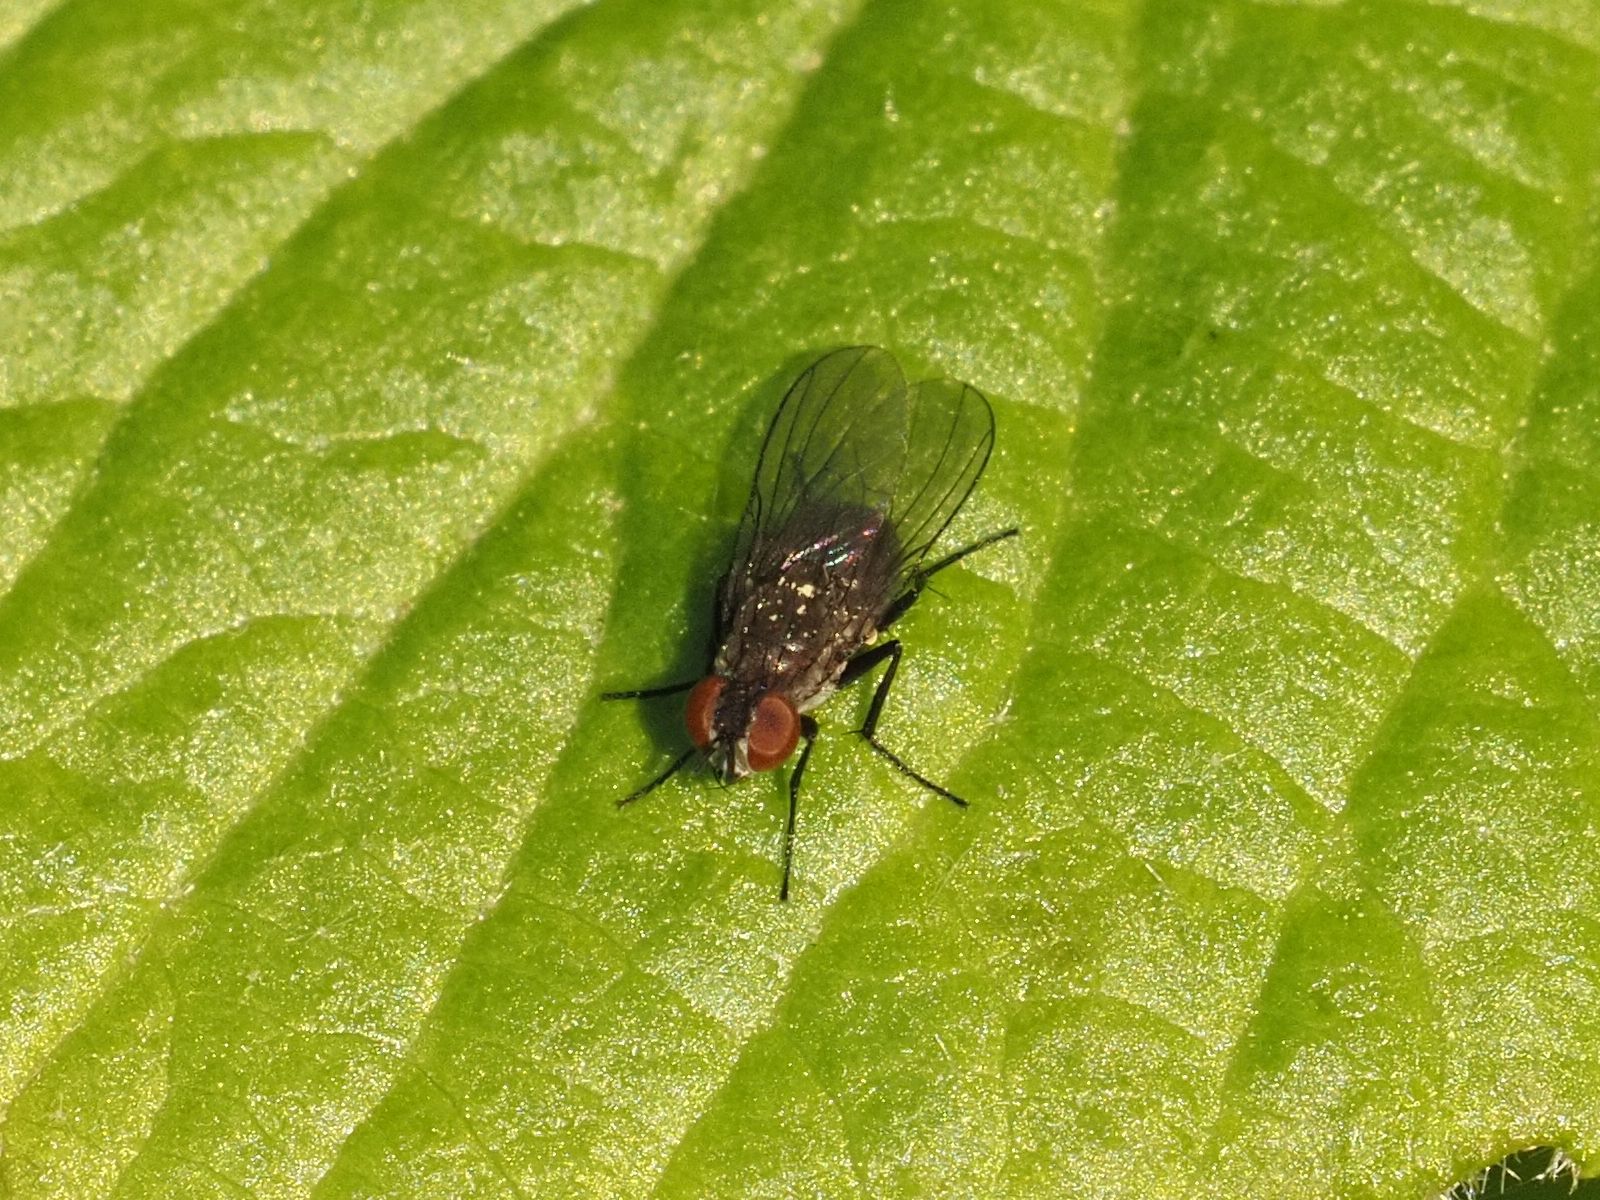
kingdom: Animalia
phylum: Arthropoda
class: Insecta
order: Diptera
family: Muscidae
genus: Coenosia
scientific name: Coenosia agromyzina
